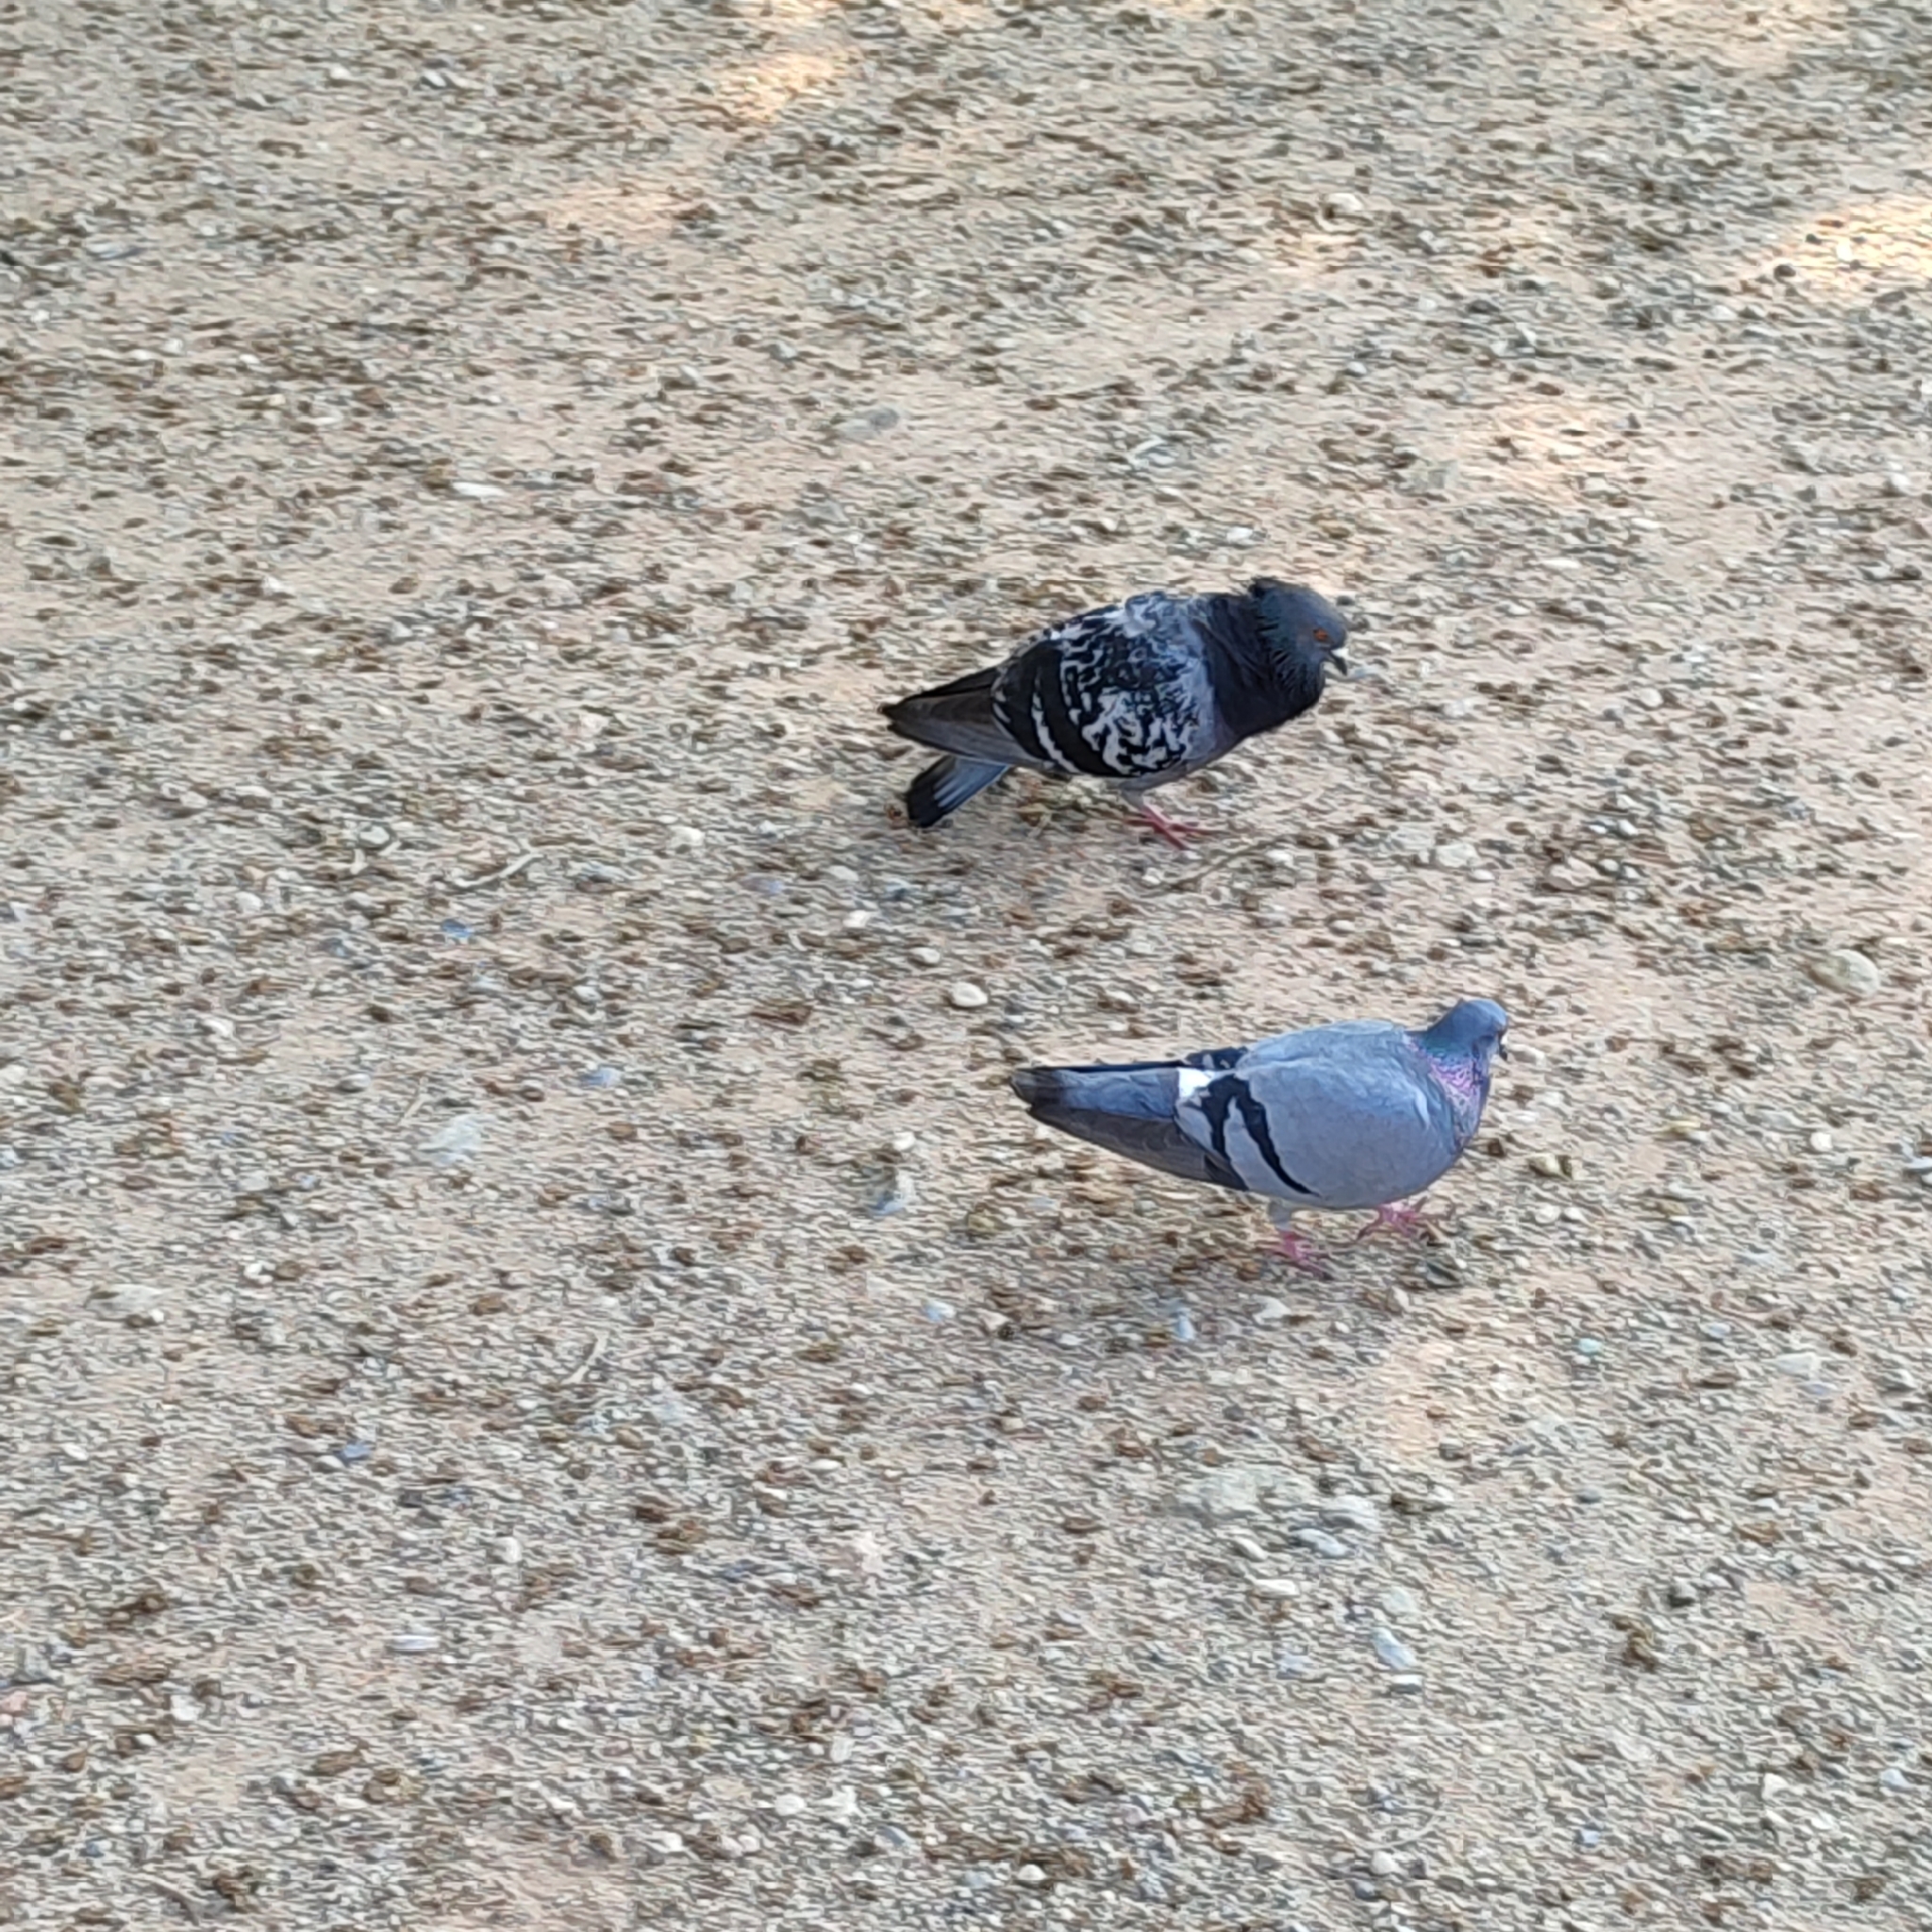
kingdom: Animalia
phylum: Chordata
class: Aves
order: Columbiformes
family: Columbidae
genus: Columba
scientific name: Columba livia
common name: Rock pigeon
